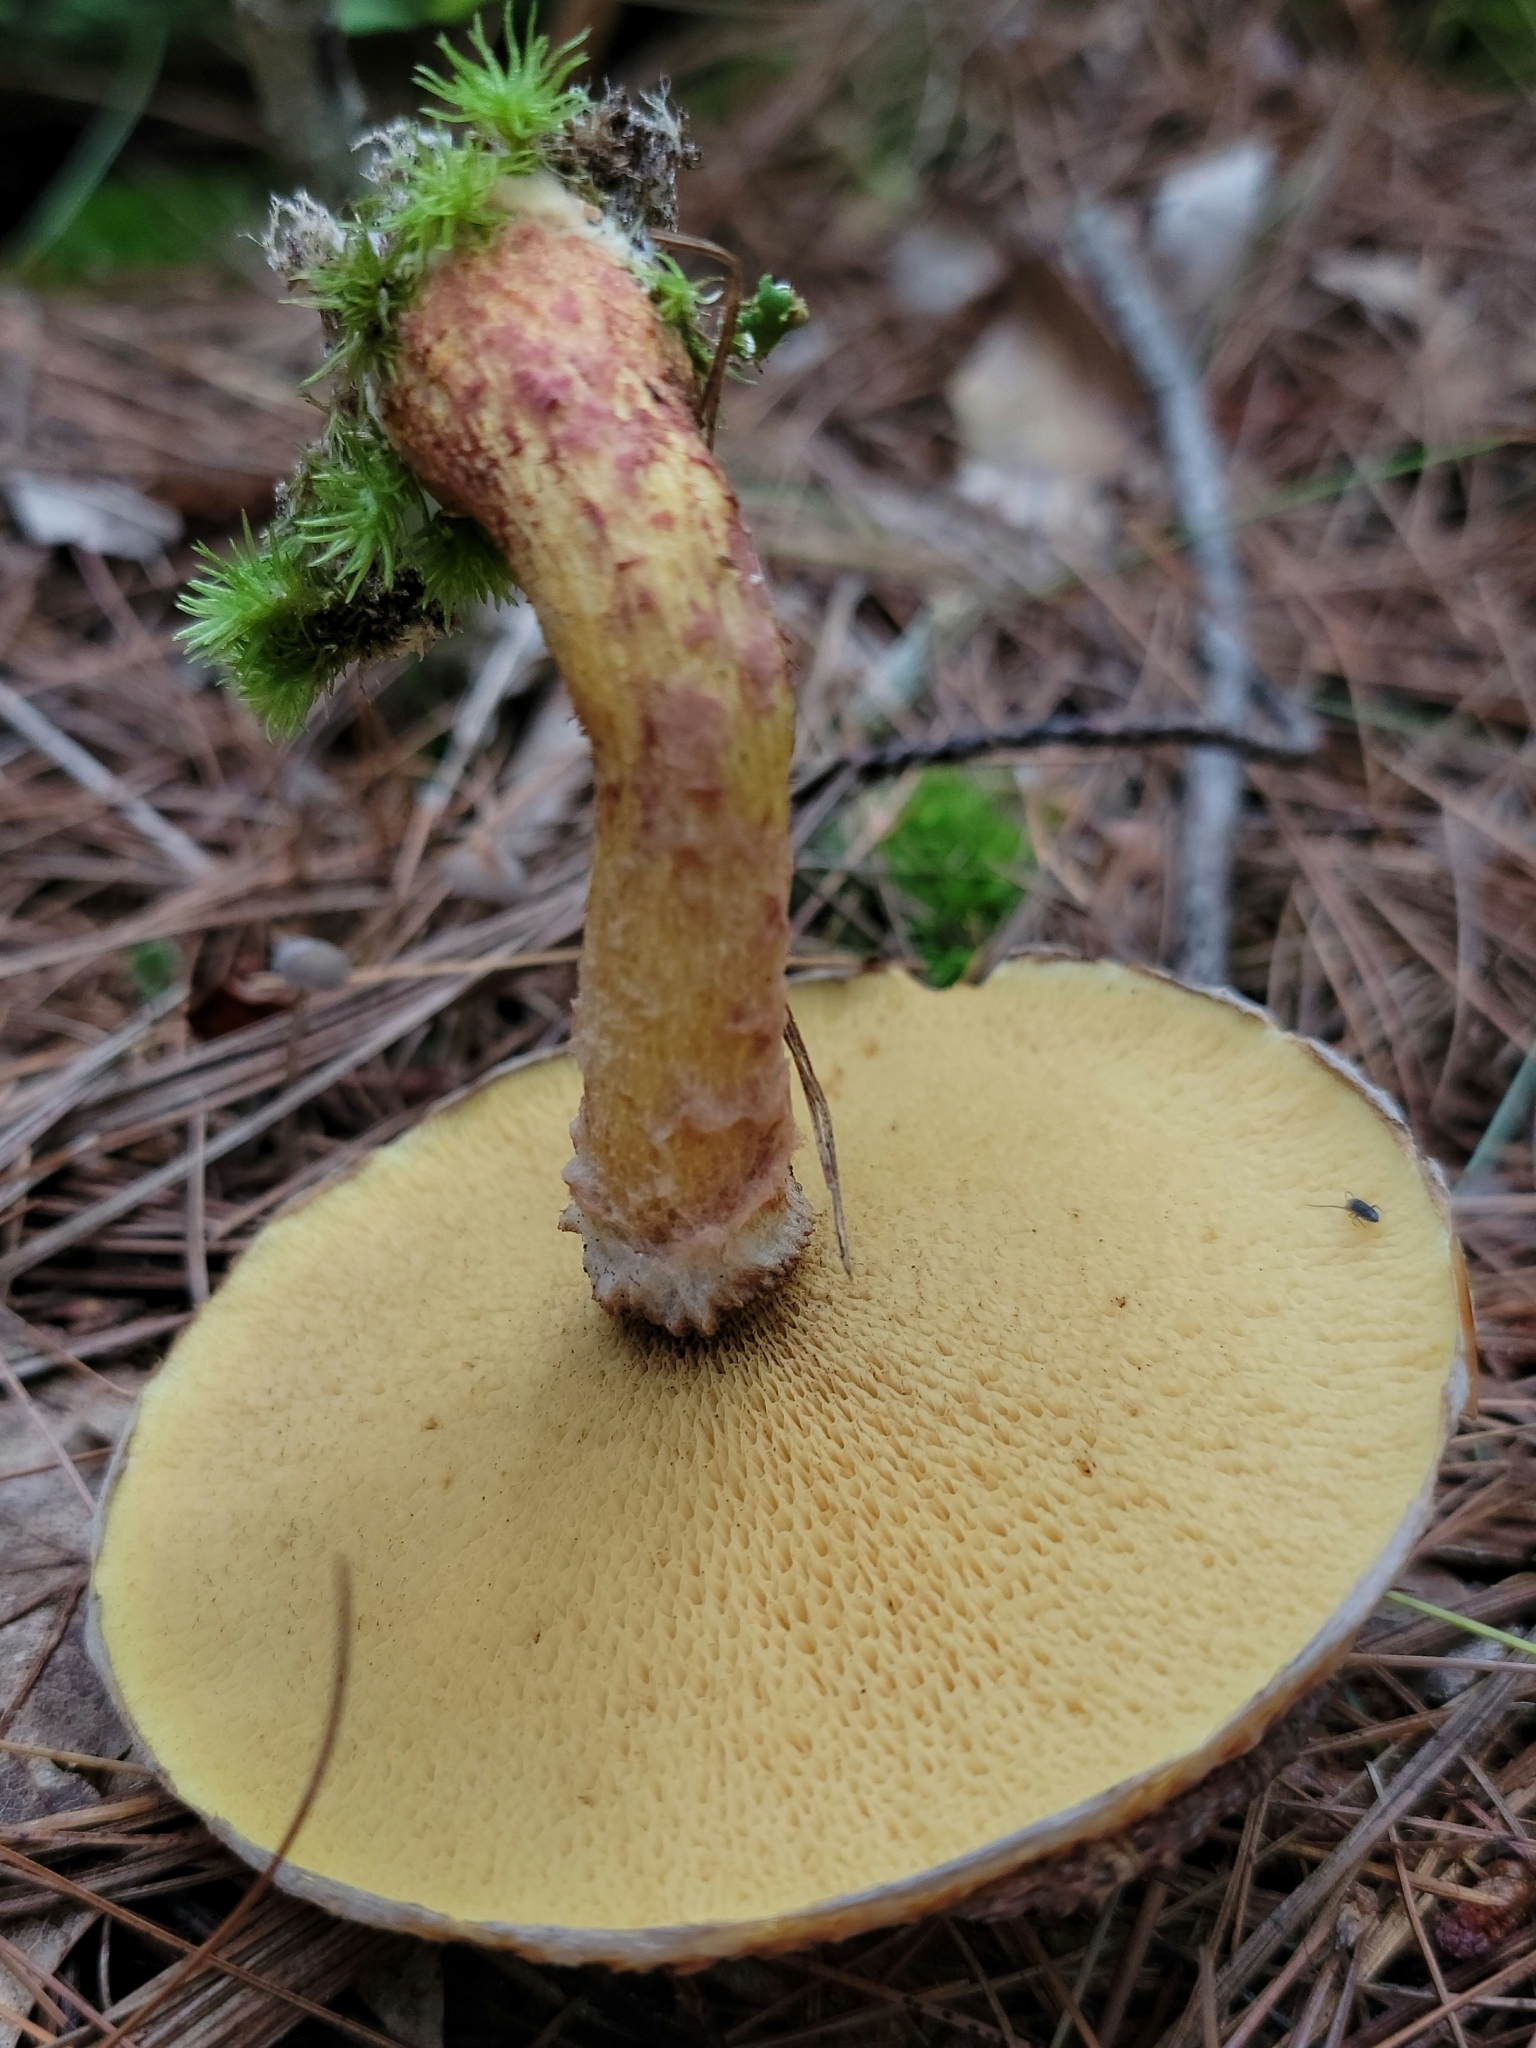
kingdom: Fungi
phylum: Basidiomycota
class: Agaricomycetes
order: Boletales
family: Suillaceae
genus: Suillus
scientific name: Suillus spraguei
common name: Painted suillus
